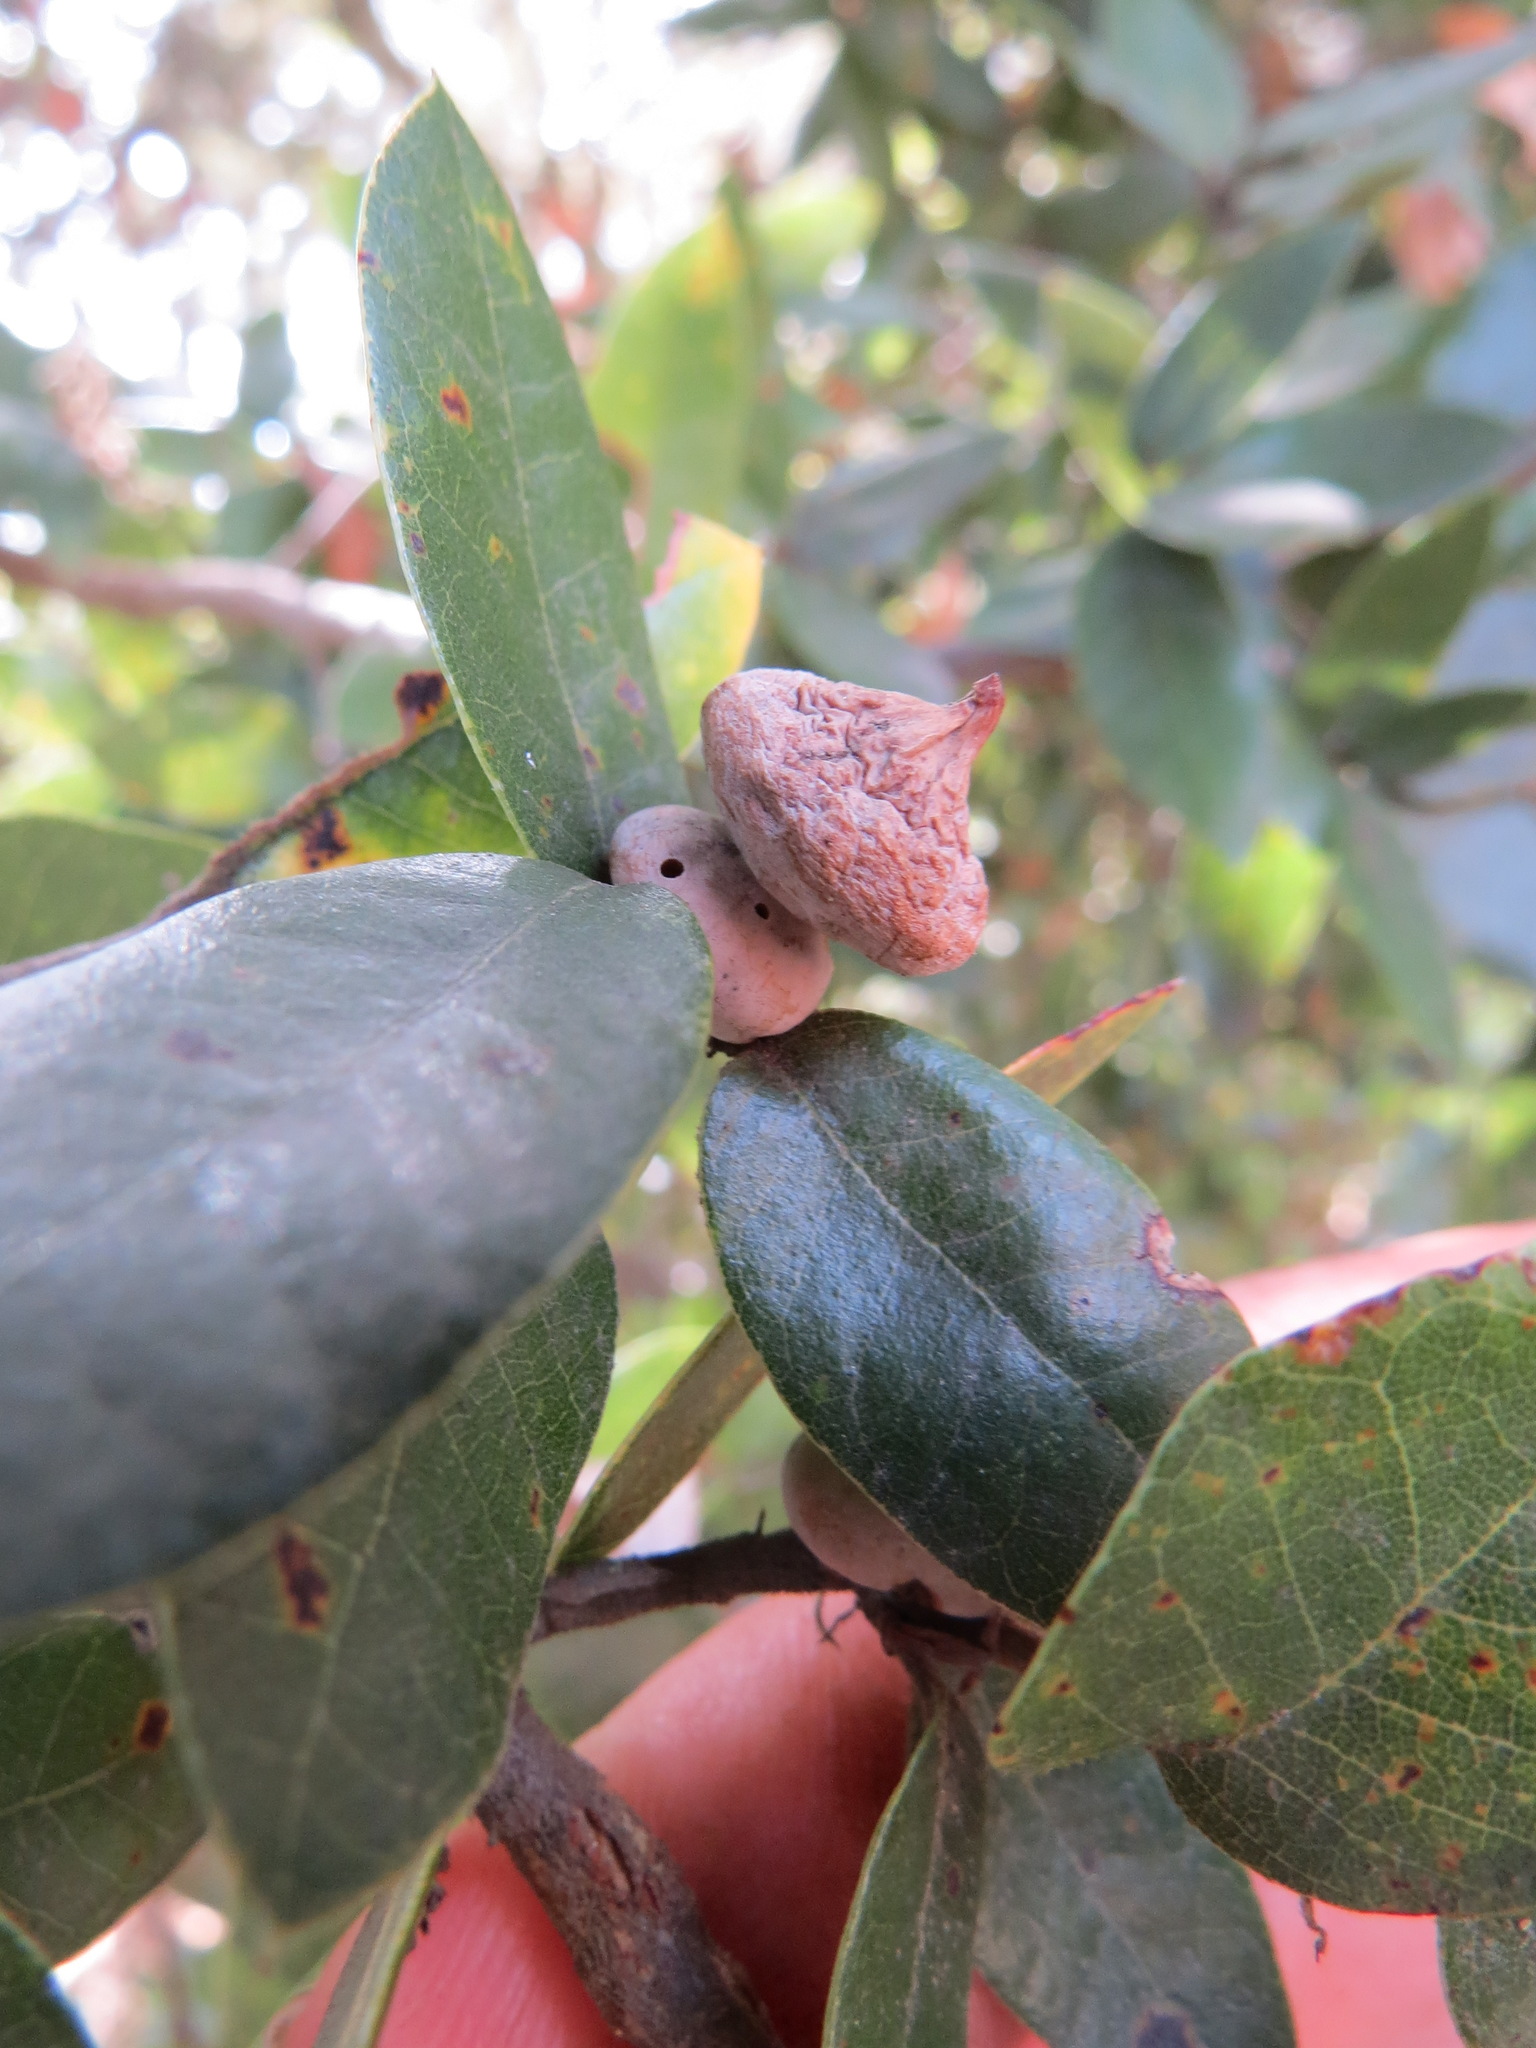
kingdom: Animalia
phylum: Arthropoda
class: Insecta
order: Hymenoptera
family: Cynipidae
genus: Heteroecus
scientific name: Heteroecus
